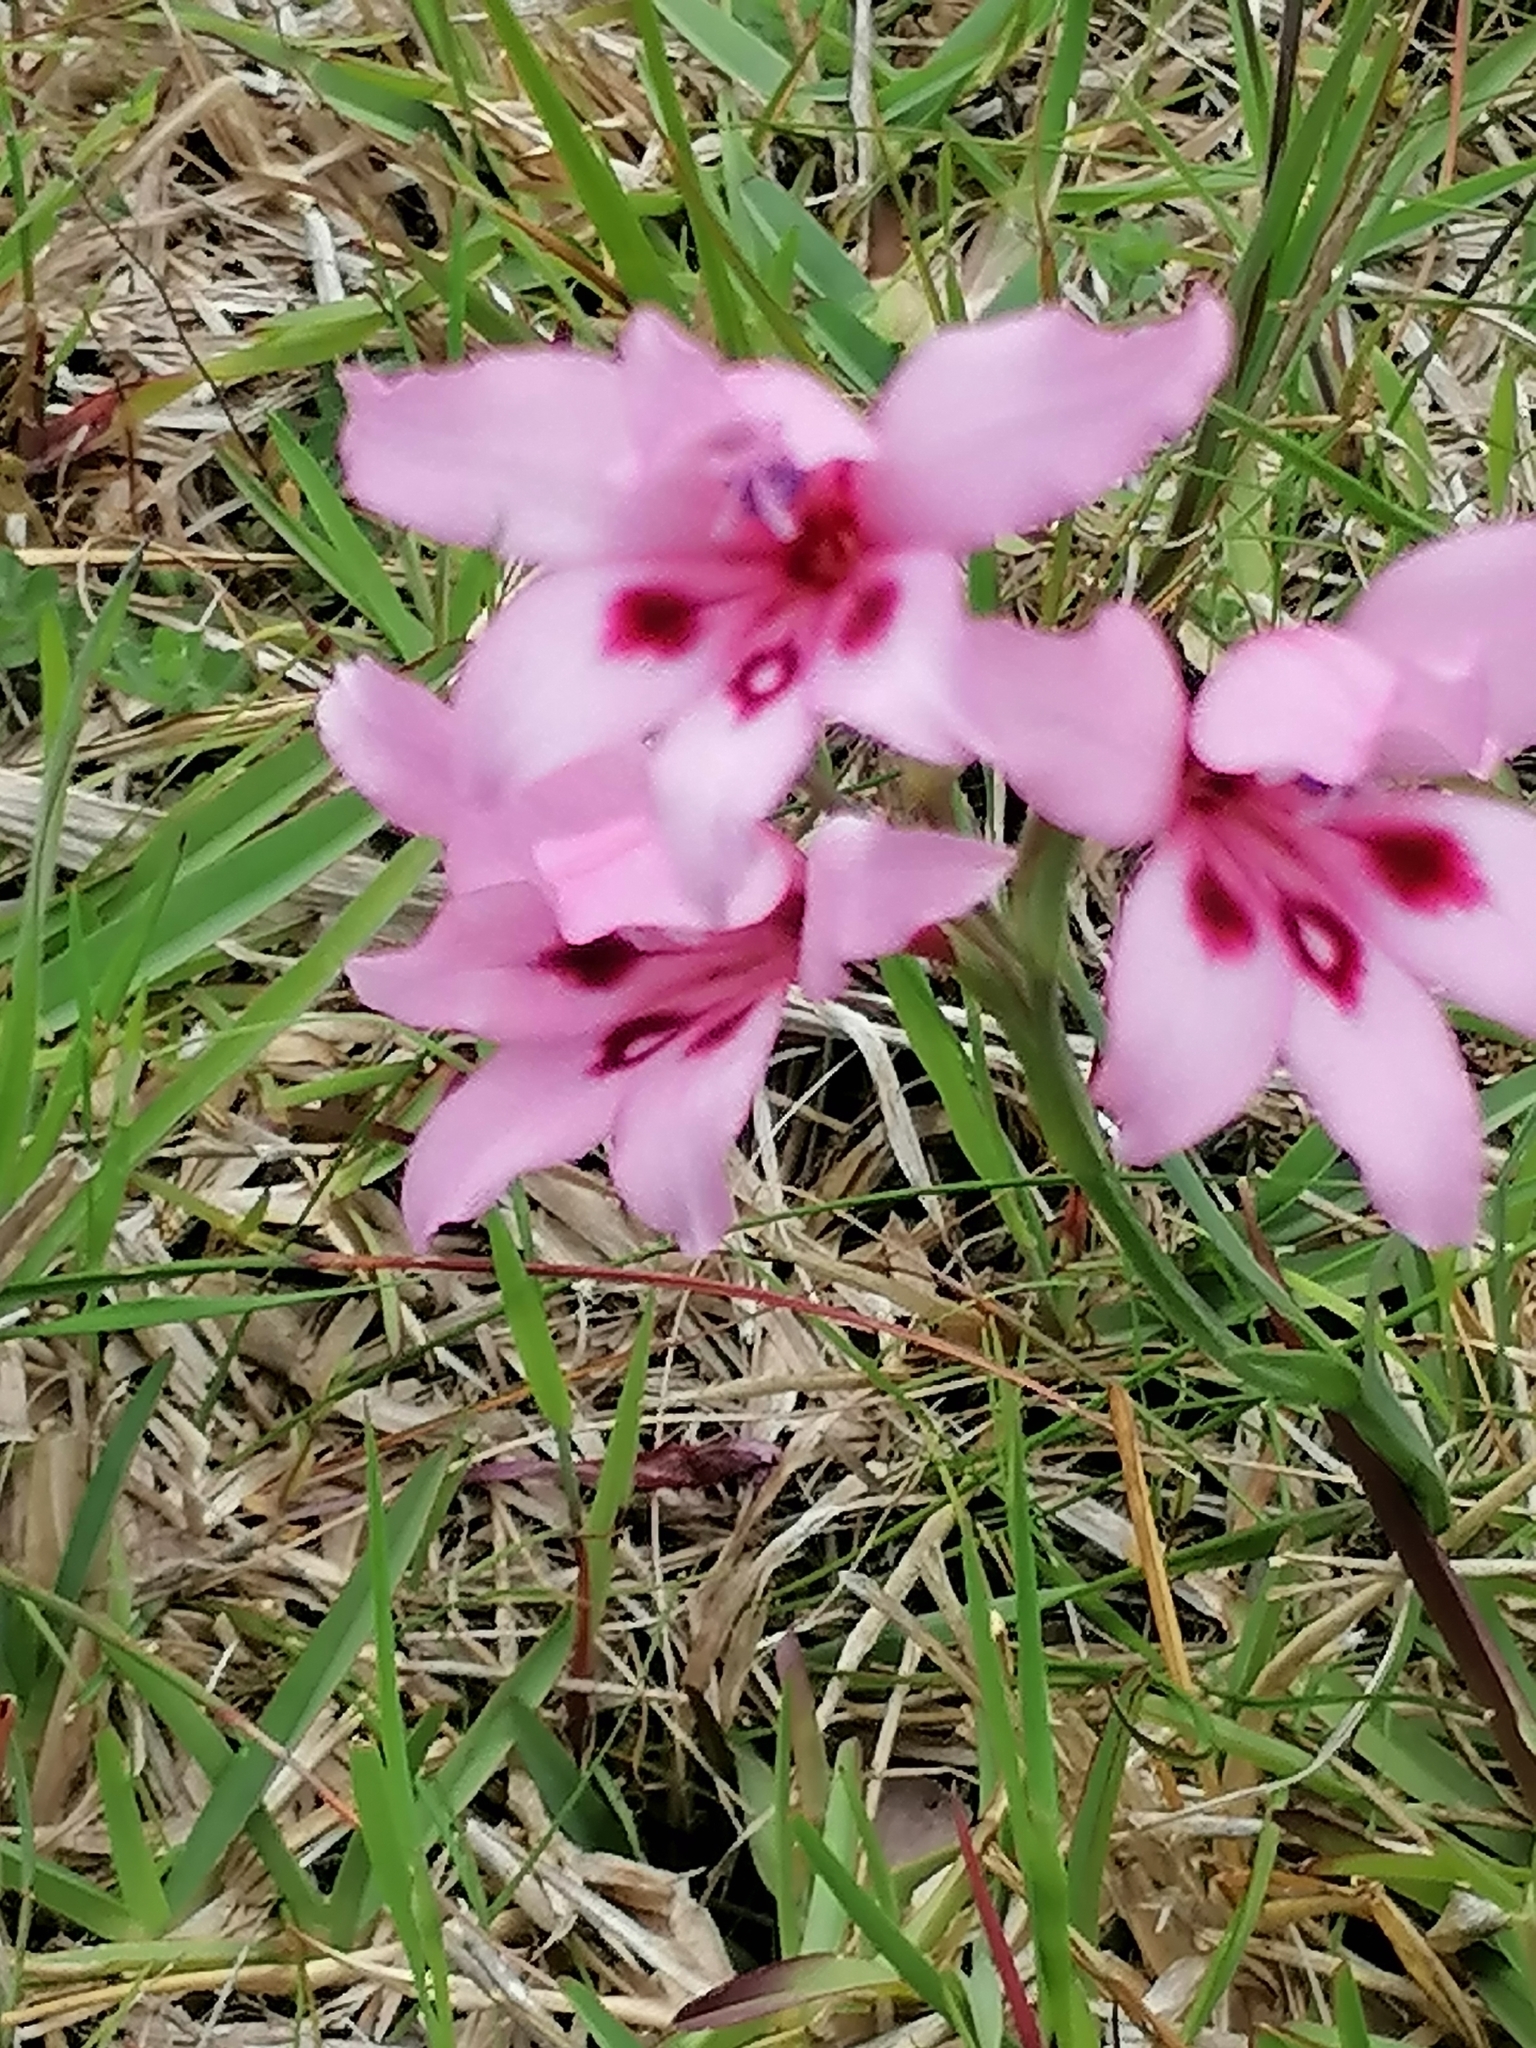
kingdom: Plantae
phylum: Tracheophyta
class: Liliopsida
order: Asparagales
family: Iridaceae
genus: Gladiolus
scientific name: Gladiolus carneus
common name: Painted-lady
